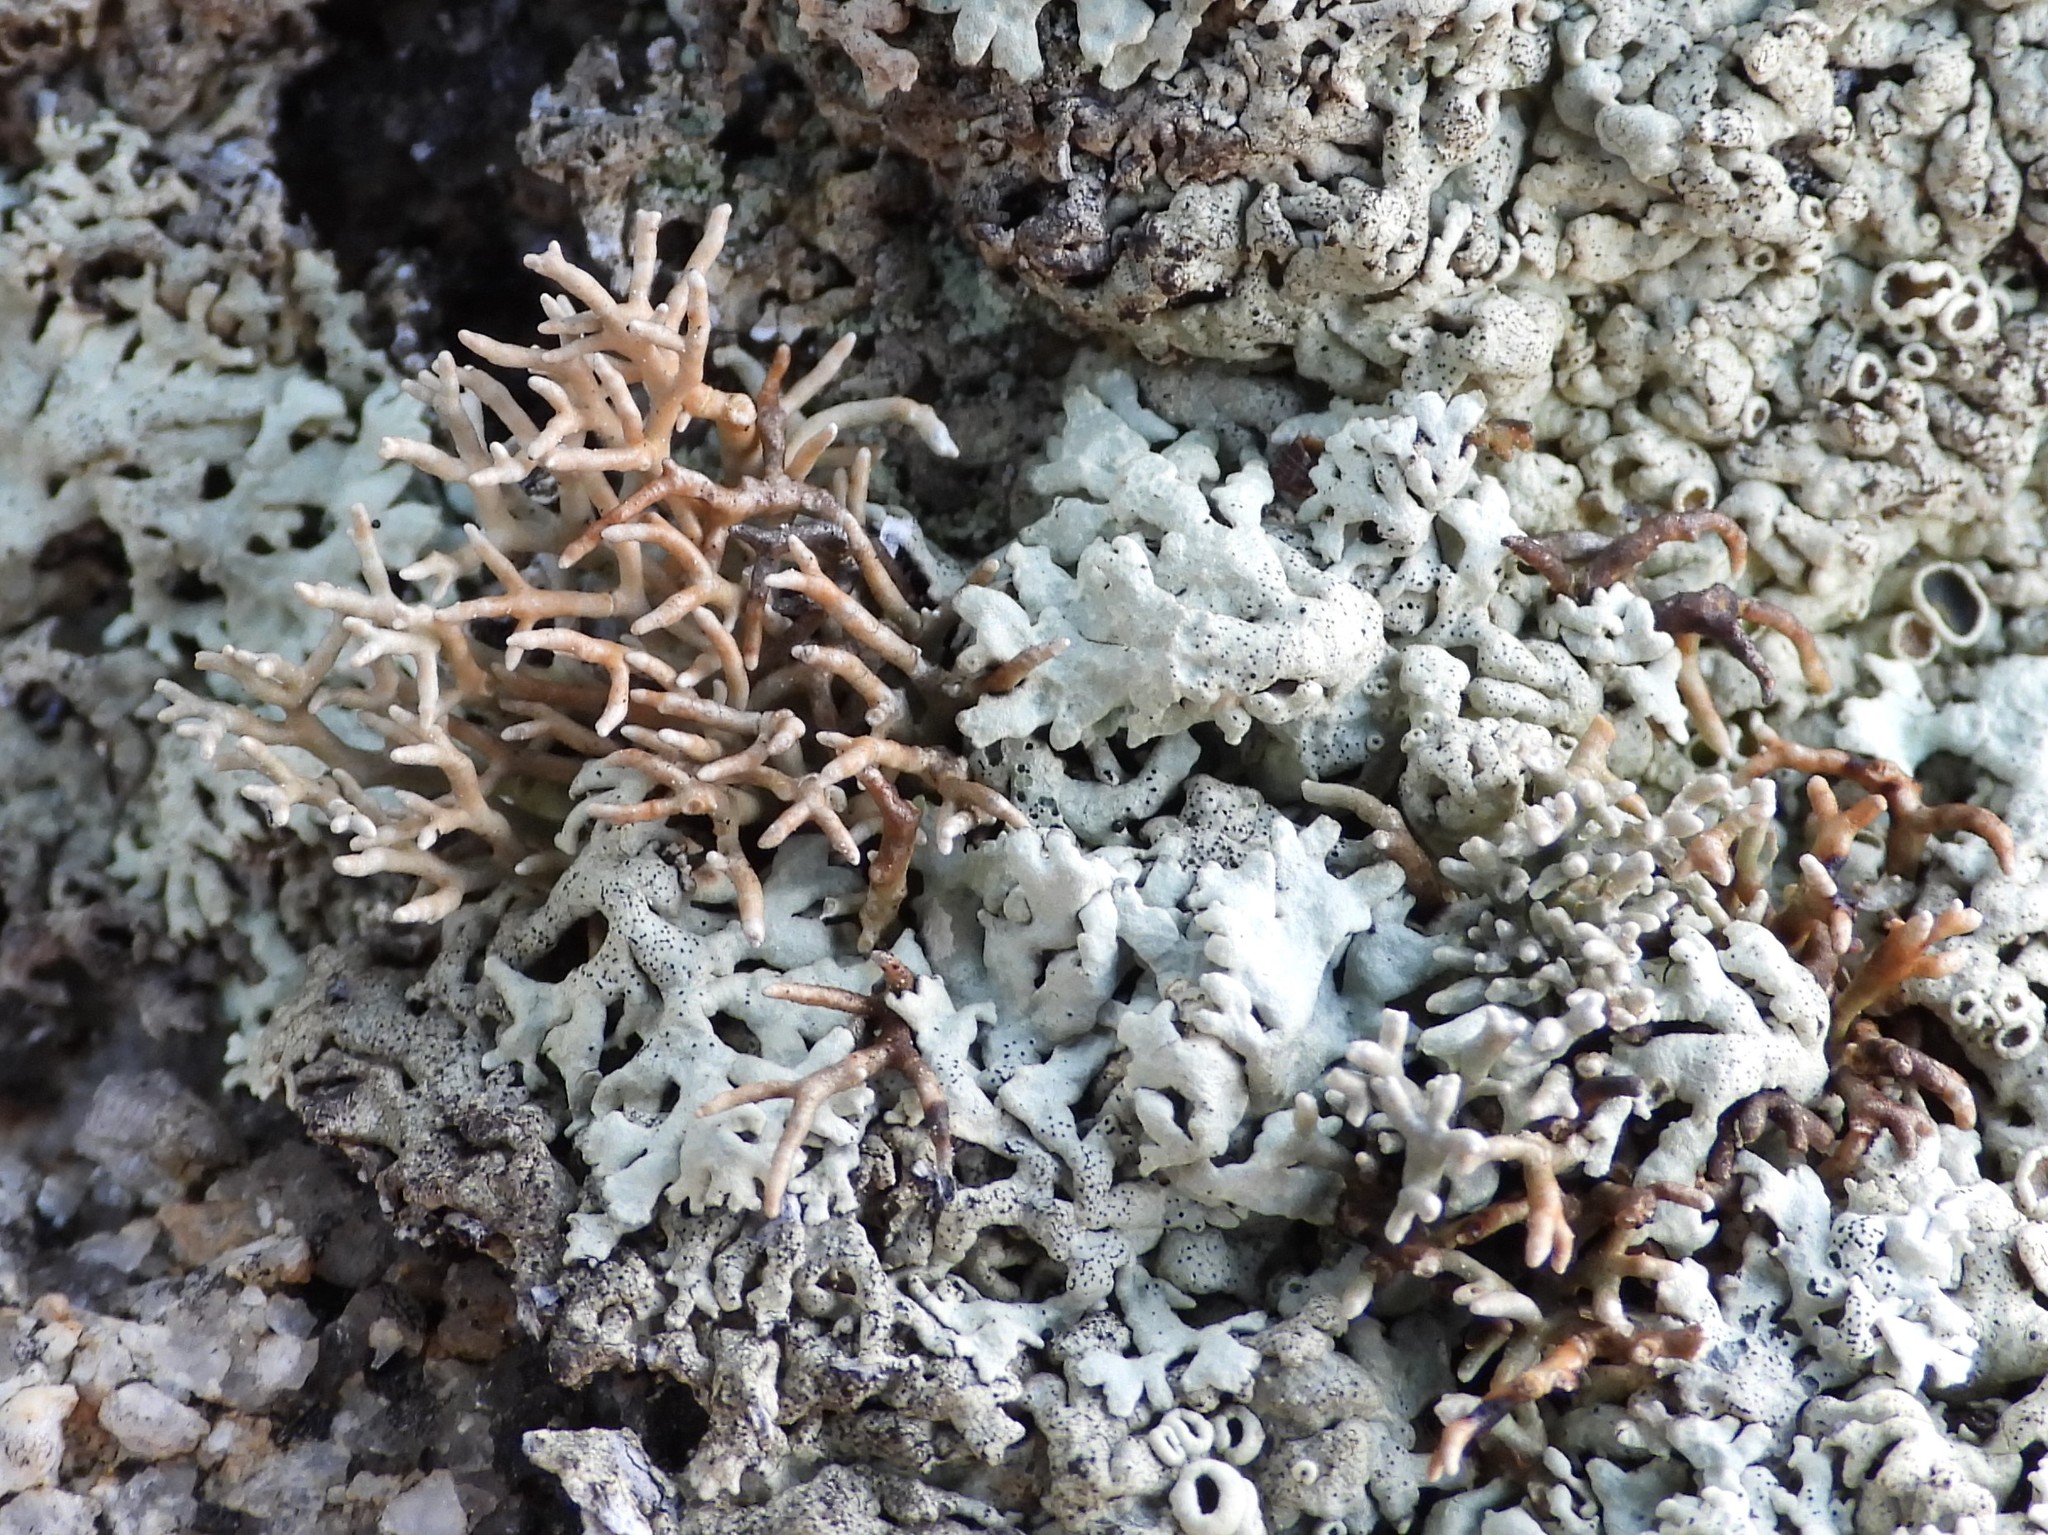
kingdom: Fungi
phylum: Ascomycota
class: Lecanoromycetes
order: Lecanorales
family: Sphaerophoraceae
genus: Sphaerophorus
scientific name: Sphaerophorus fragilis
